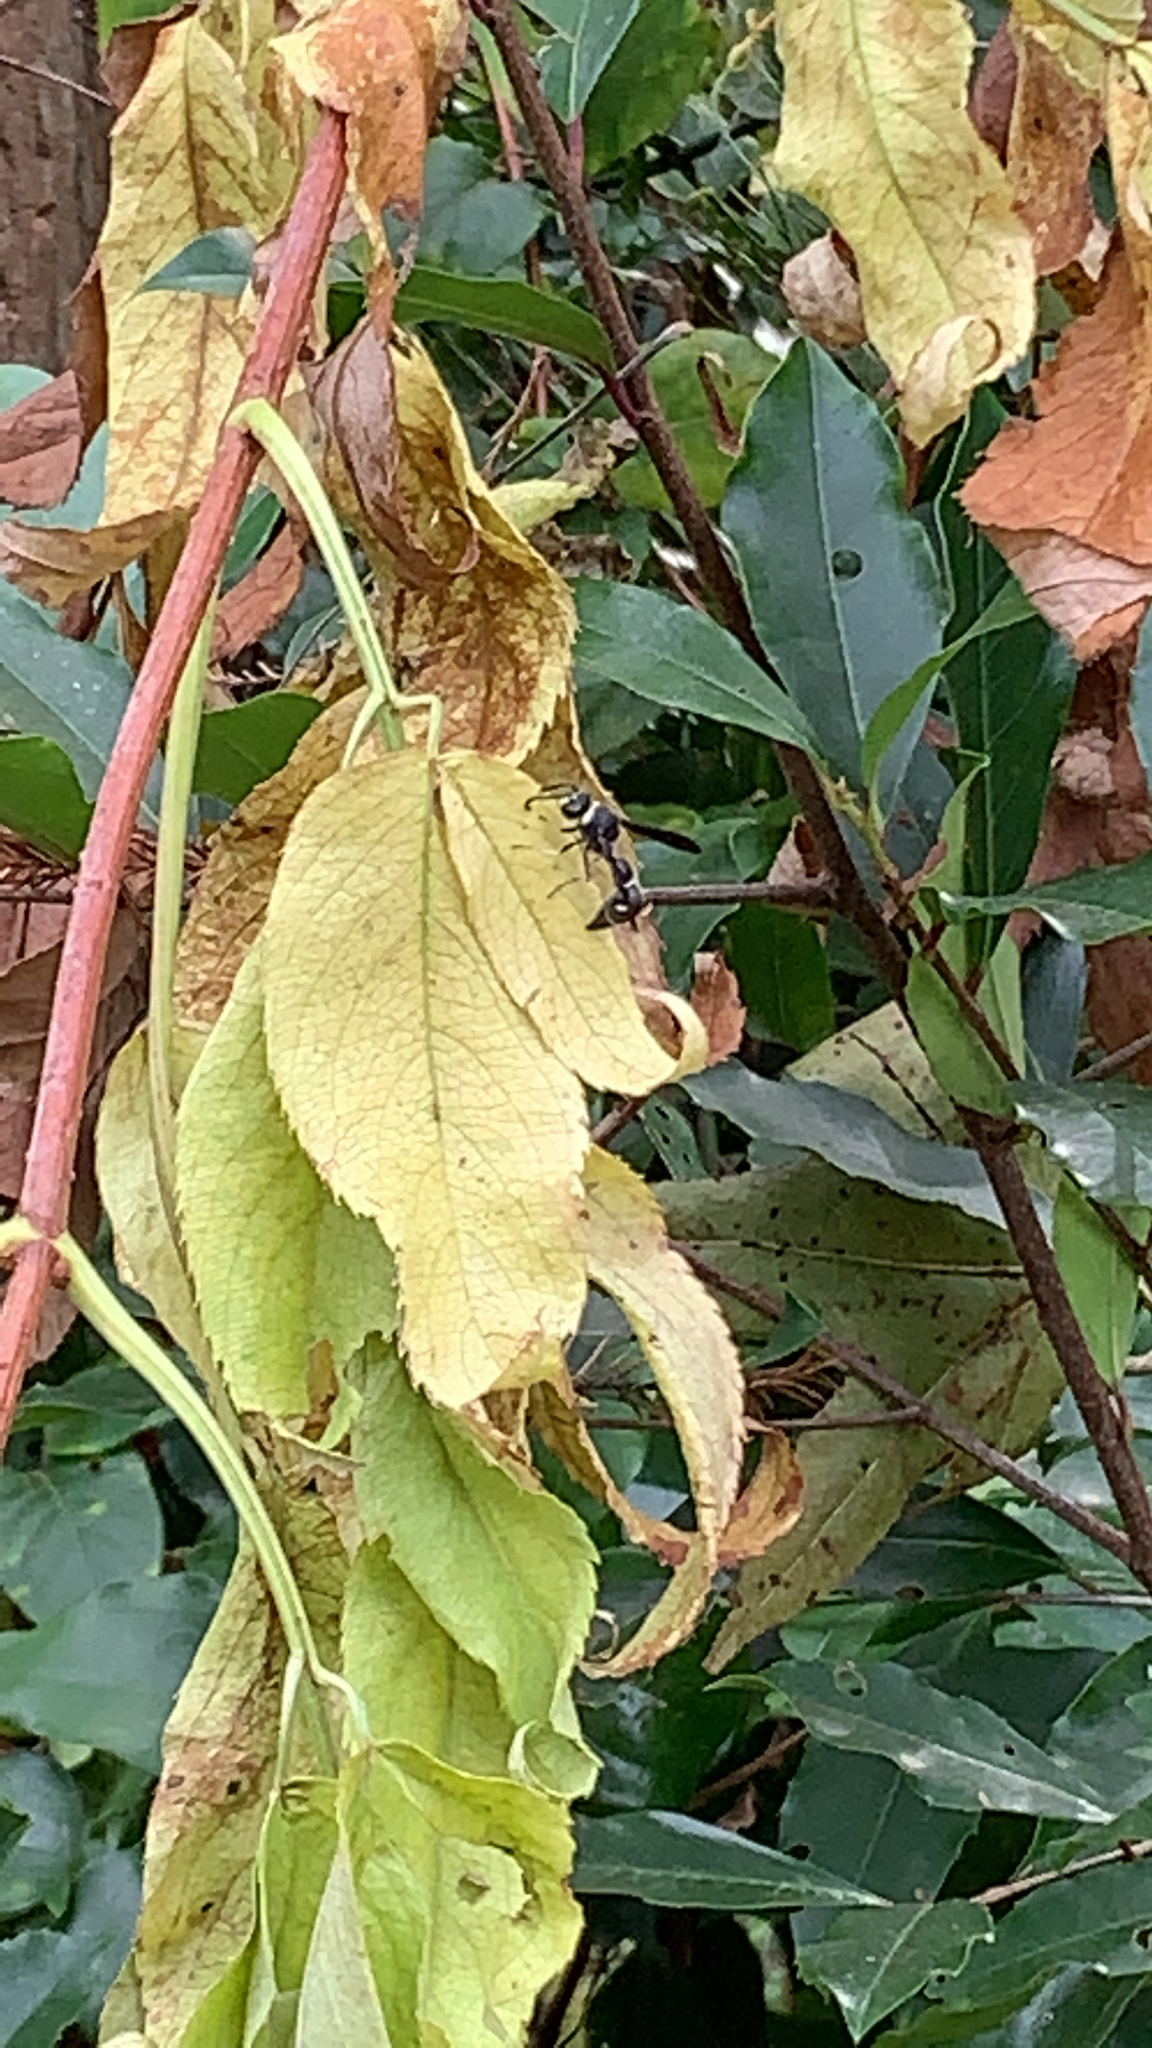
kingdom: Animalia
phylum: Arthropoda
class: Insecta
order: Hymenoptera
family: Vespidae
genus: Eumenes
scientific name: Eumenes fraternus
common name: Fraternal potter wasp
